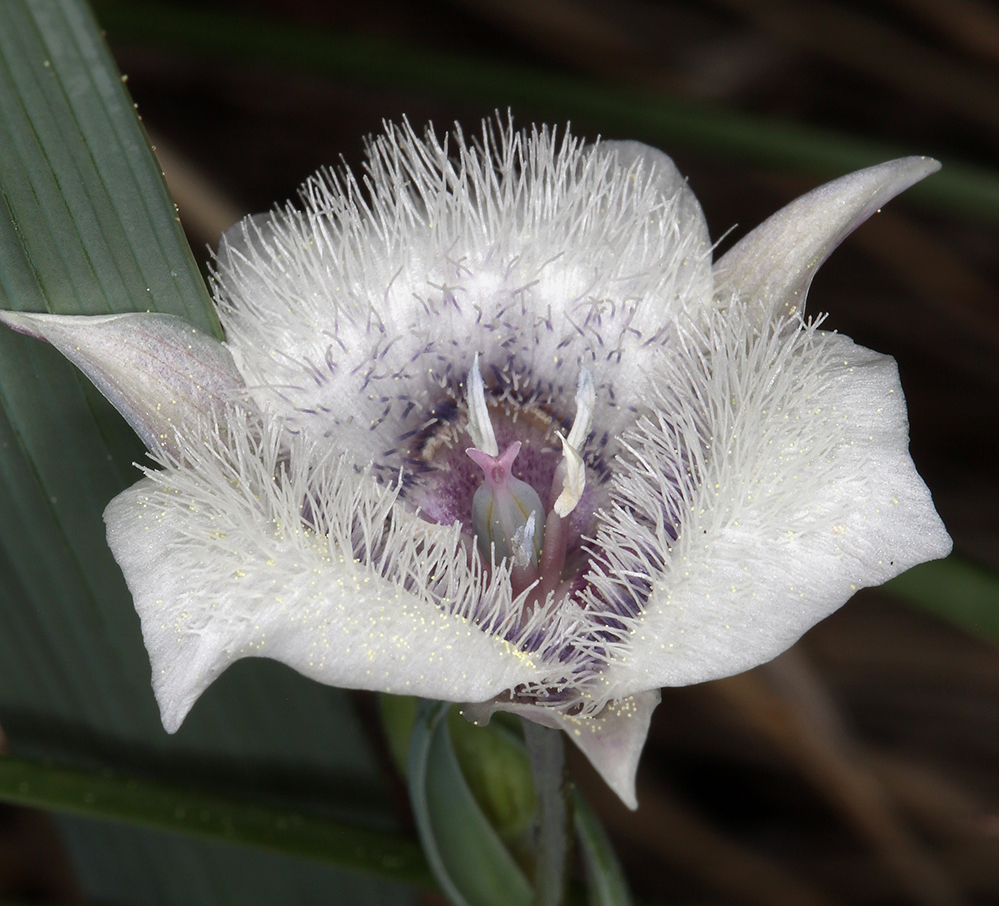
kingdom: Plantae
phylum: Tracheophyta
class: Liliopsida
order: Liliales
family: Liliaceae
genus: Calochortus
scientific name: Calochortus tolmiei
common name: Pussy-ears
